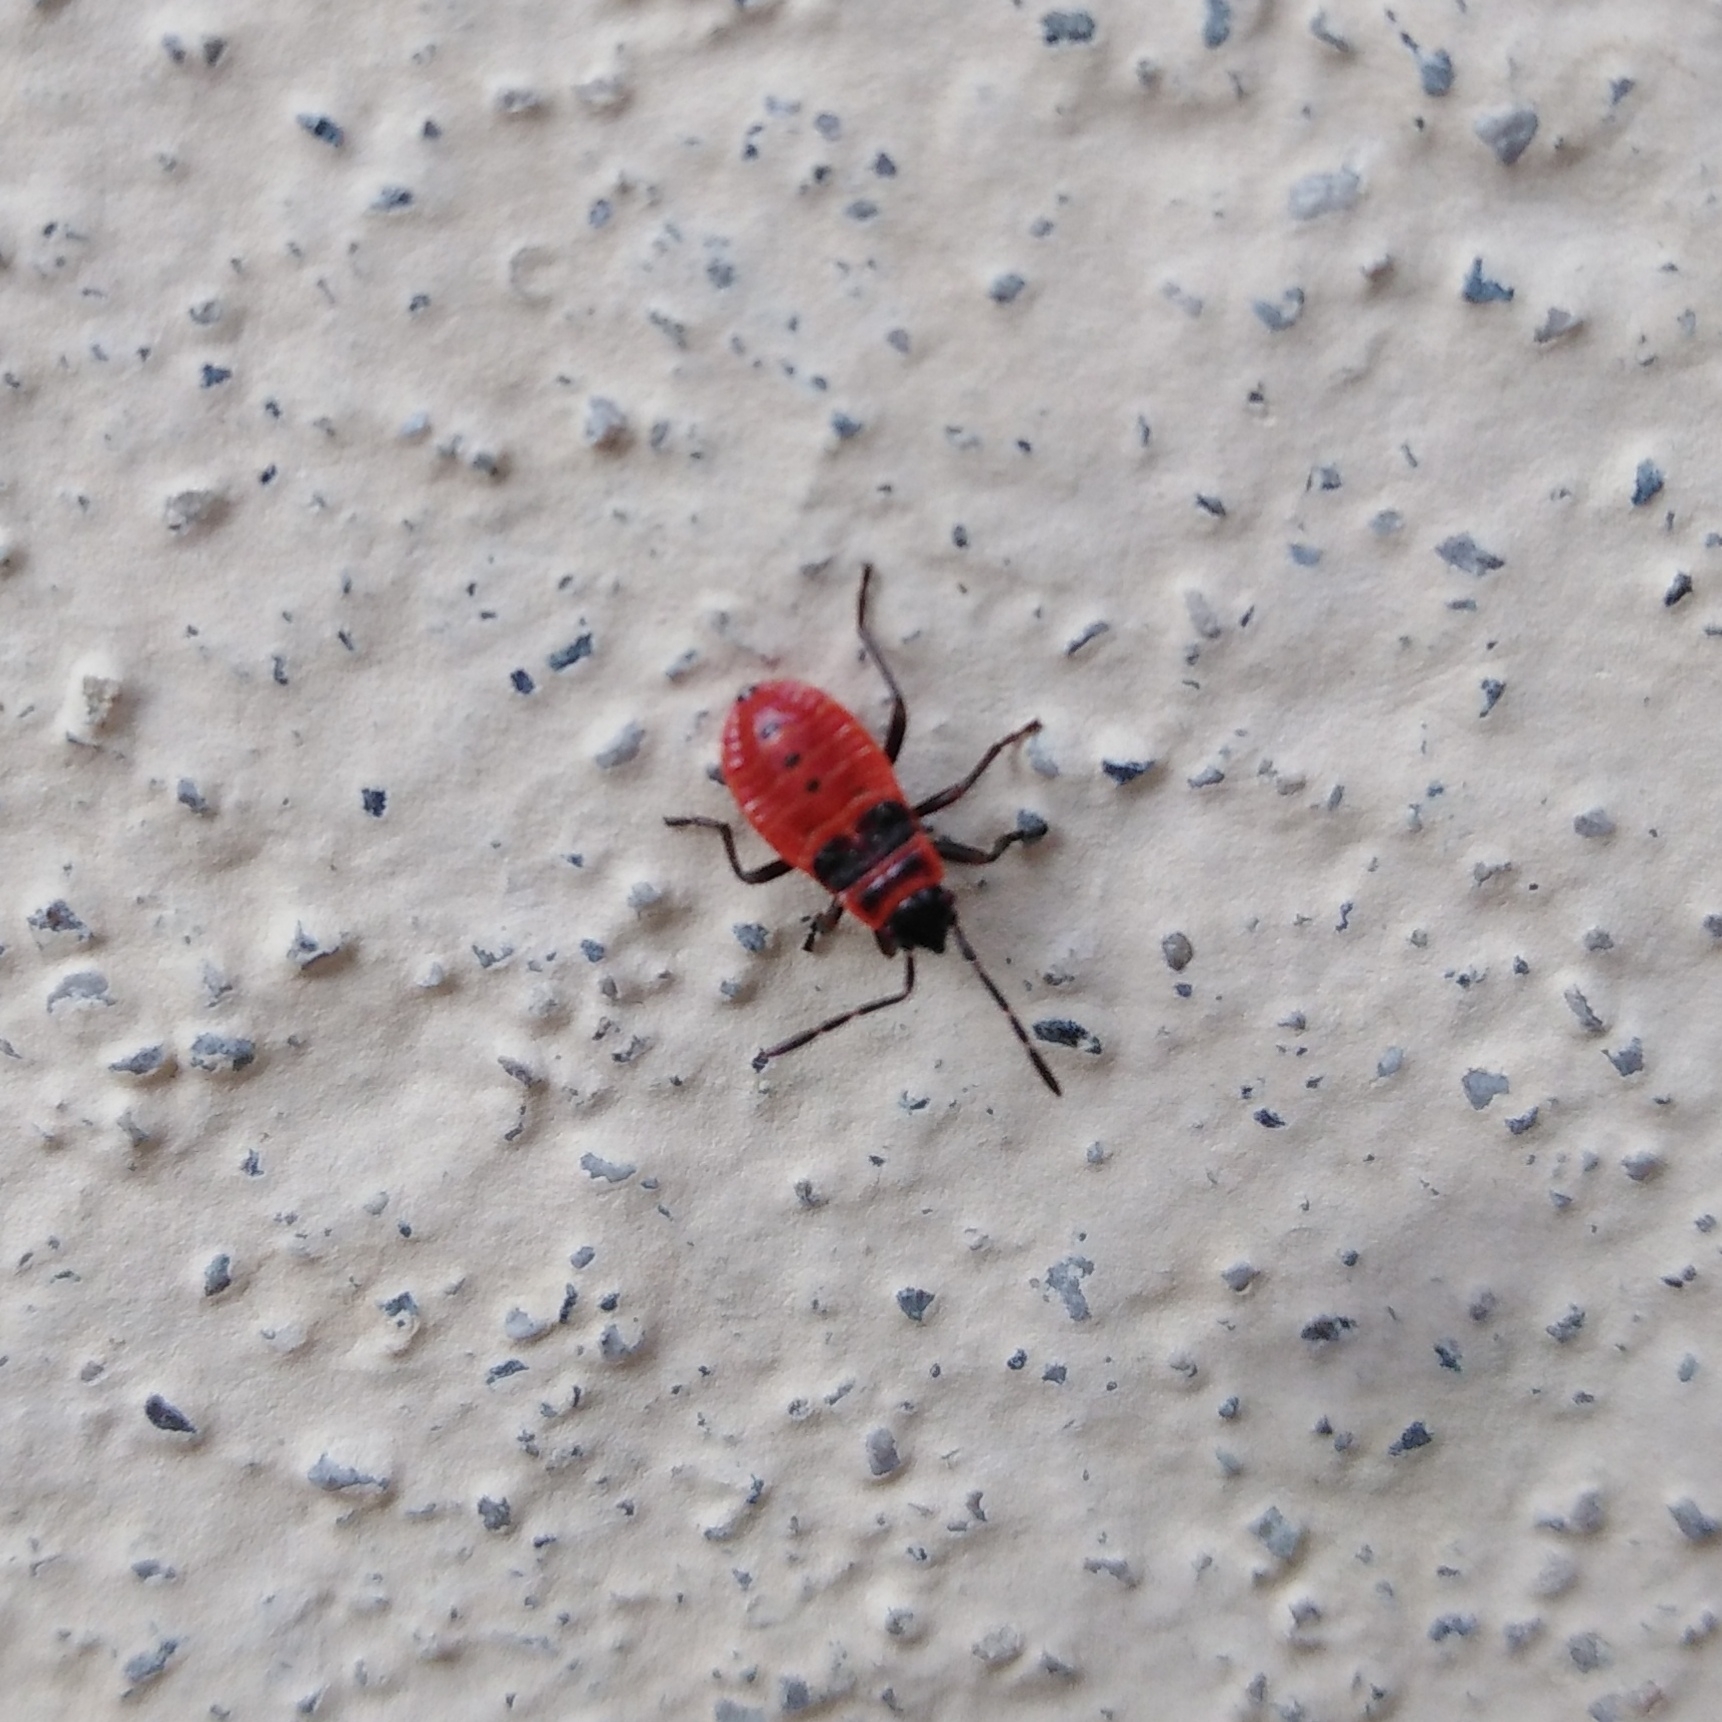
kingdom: Animalia
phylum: Arthropoda
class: Insecta
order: Hemiptera
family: Pyrrhocoridae
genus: Pyrrhocoris
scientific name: Pyrrhocoris apterus
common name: Firebug
